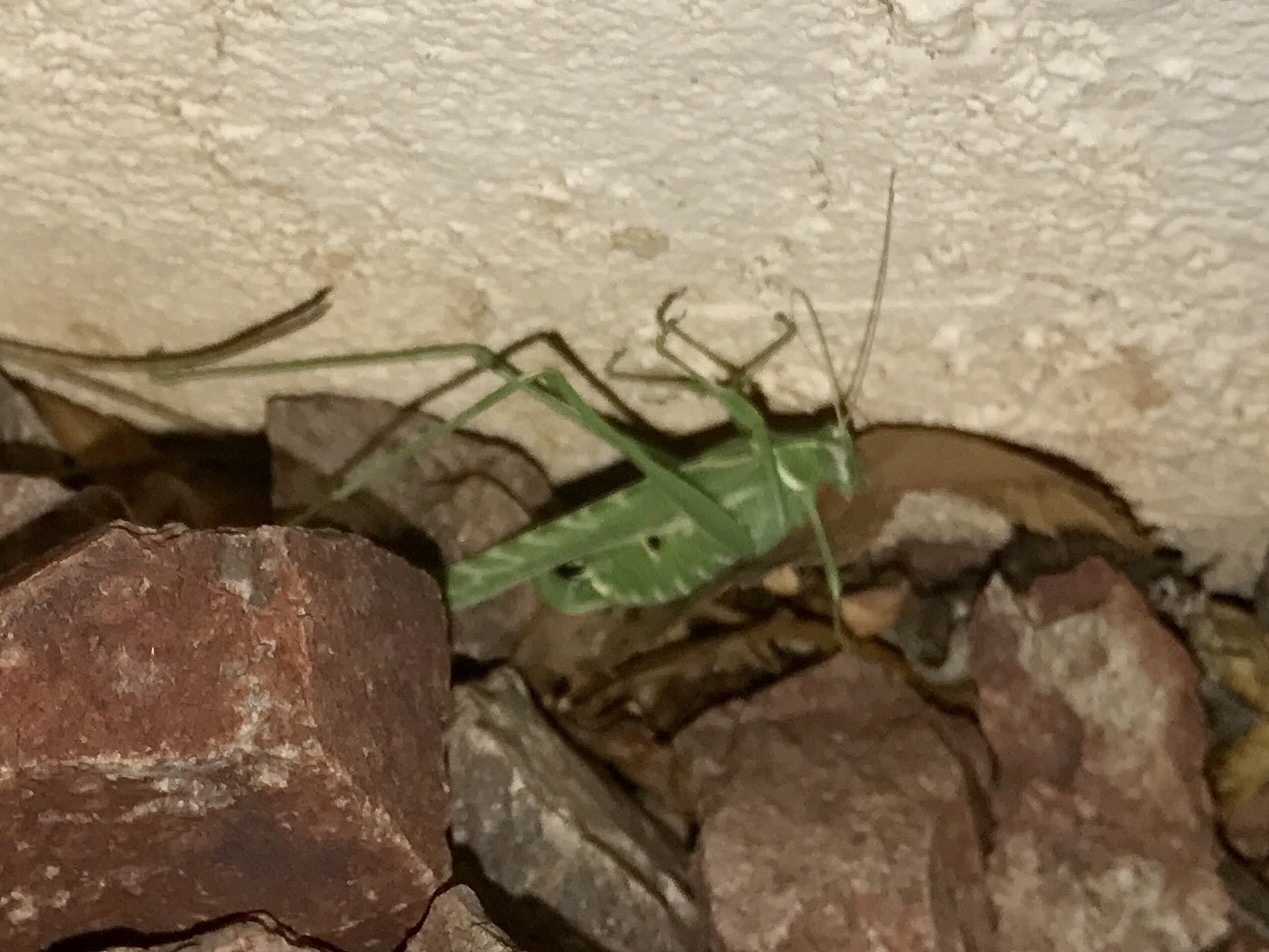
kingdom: Animalia
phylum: Arthropoda
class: Insecta
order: Orthoptera
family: Tettigoniidae
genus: Insara
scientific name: Insara elegans
